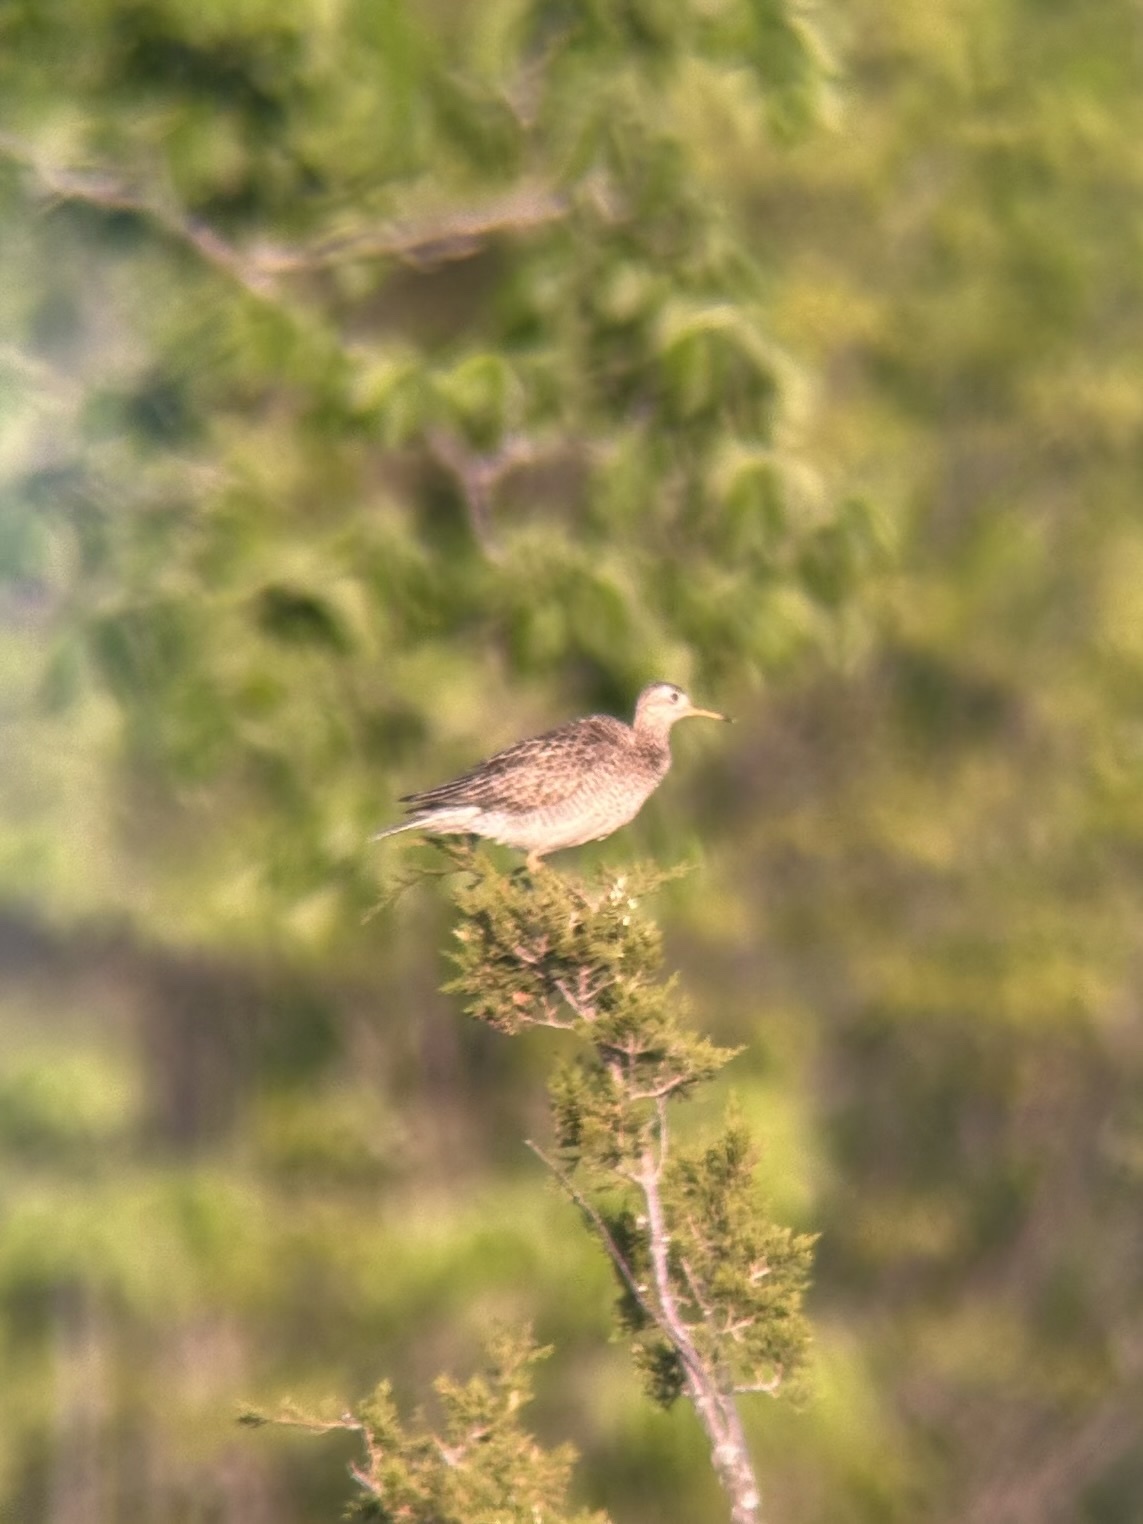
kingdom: Animalia
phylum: Chordata
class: Aves
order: Charadriiformes
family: Scolopacidae
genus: Bartramia
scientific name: Bartramia longicauda
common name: Upland sandpiper
